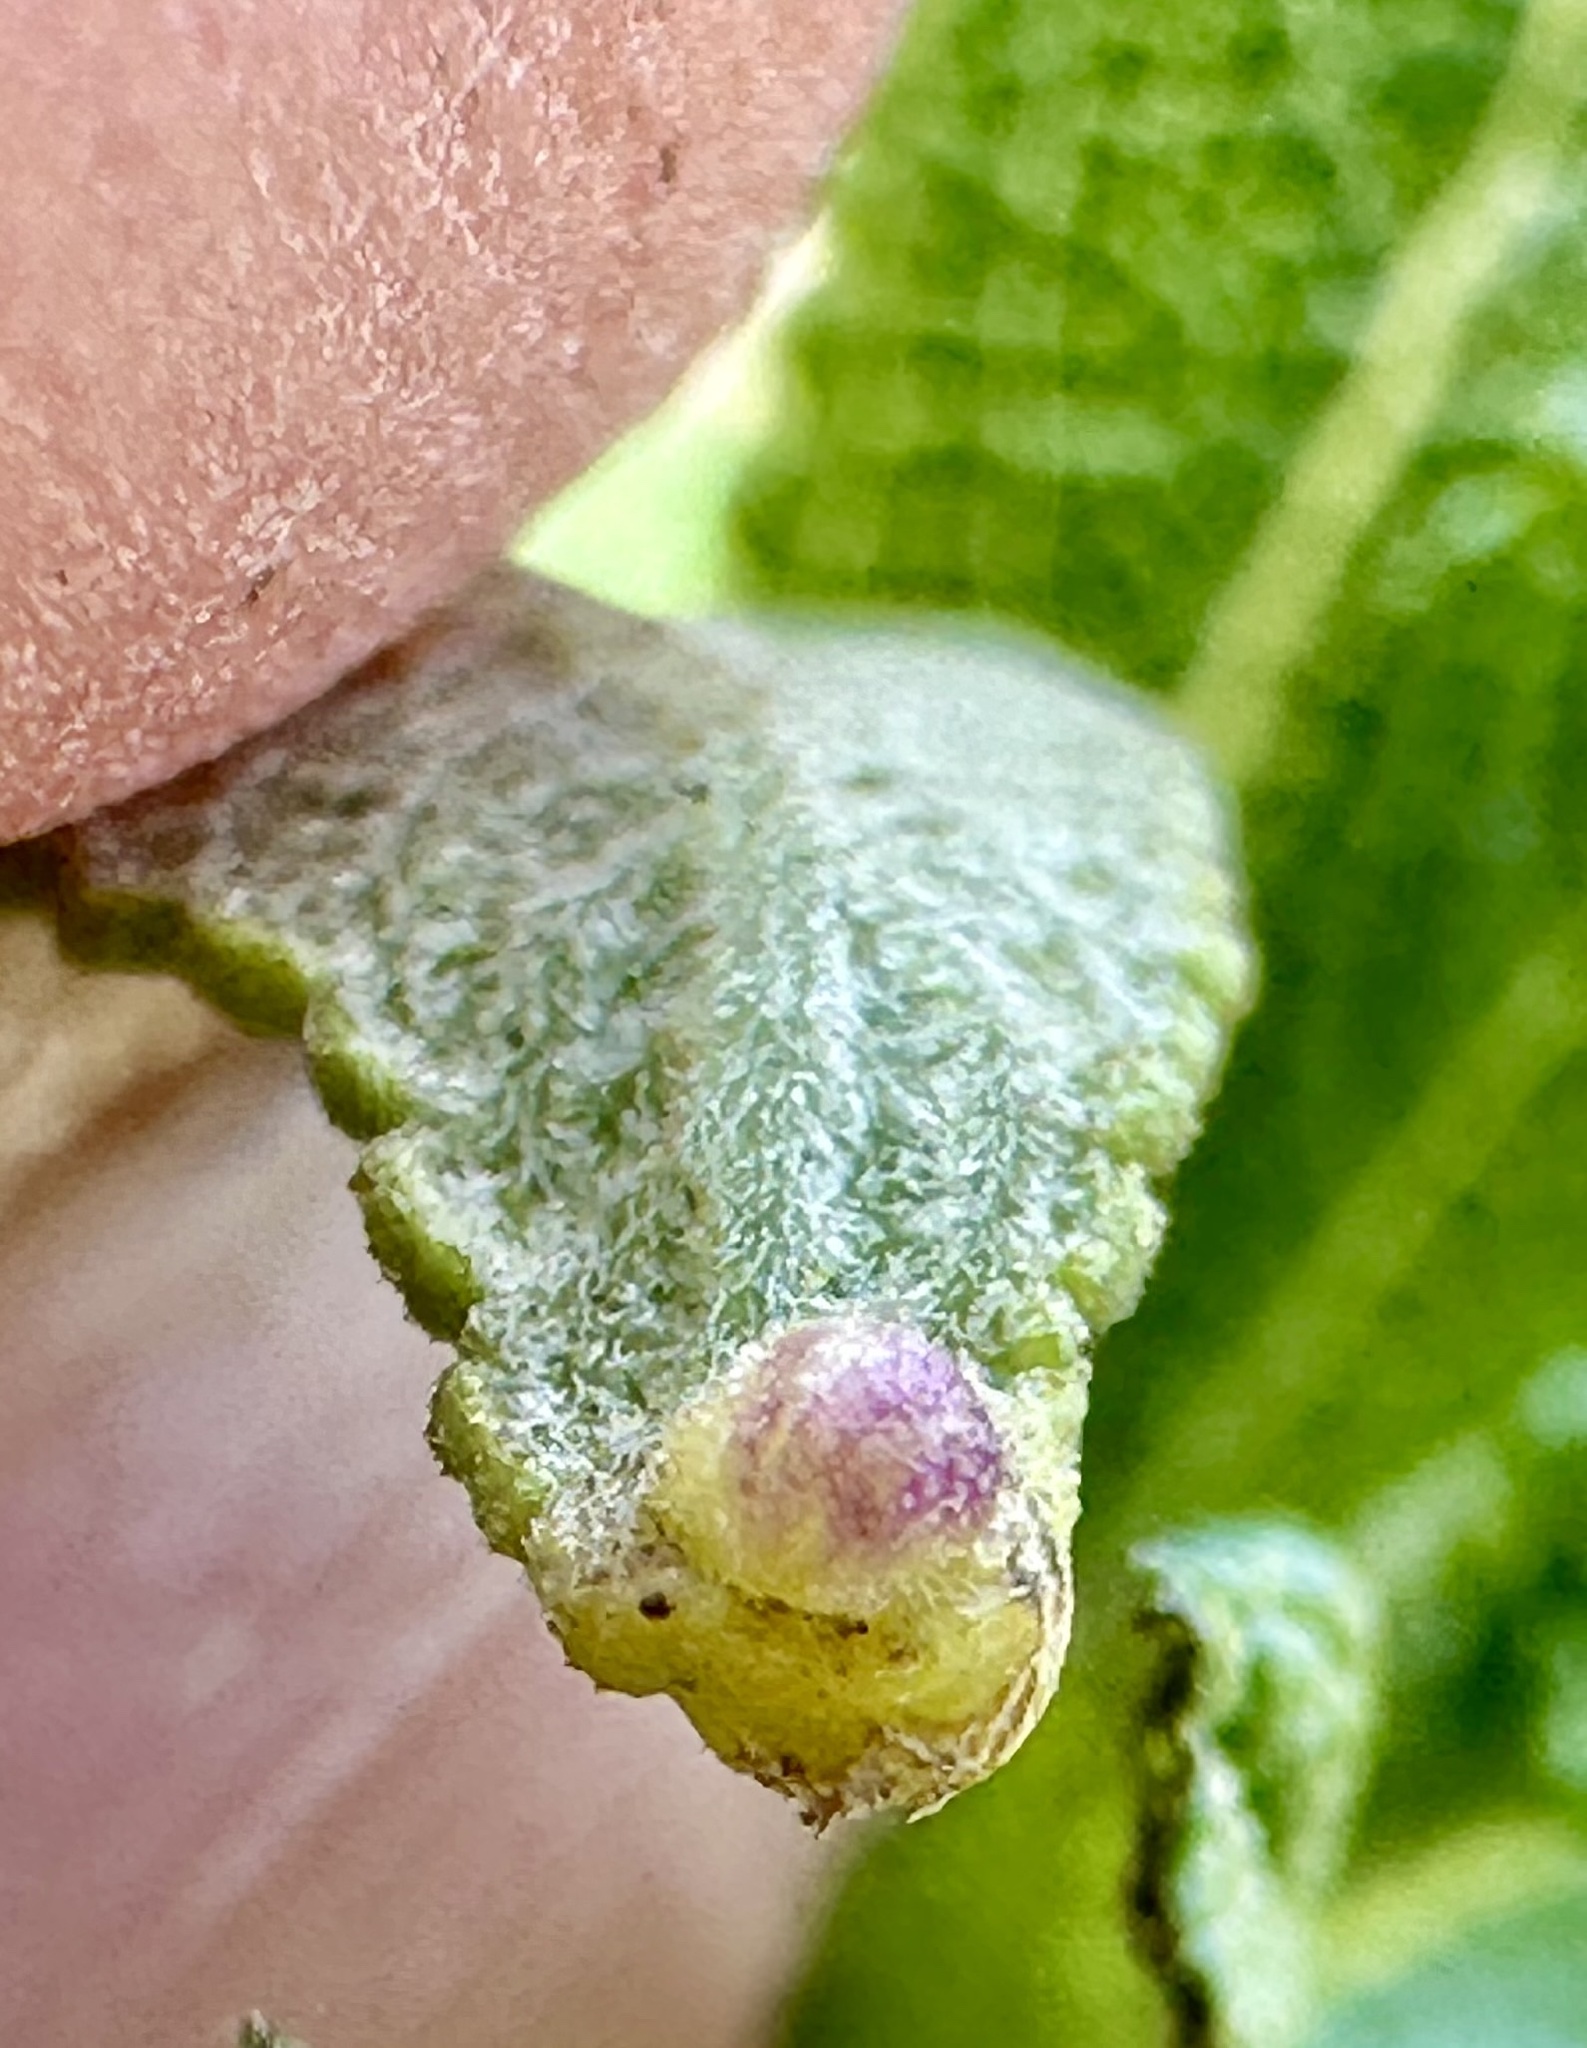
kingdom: Animalia
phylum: Arthropoda
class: Insecta
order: Diptera
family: Cecidomyiidae
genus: Rhopalomyia
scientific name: Rhopalomyia salviae
